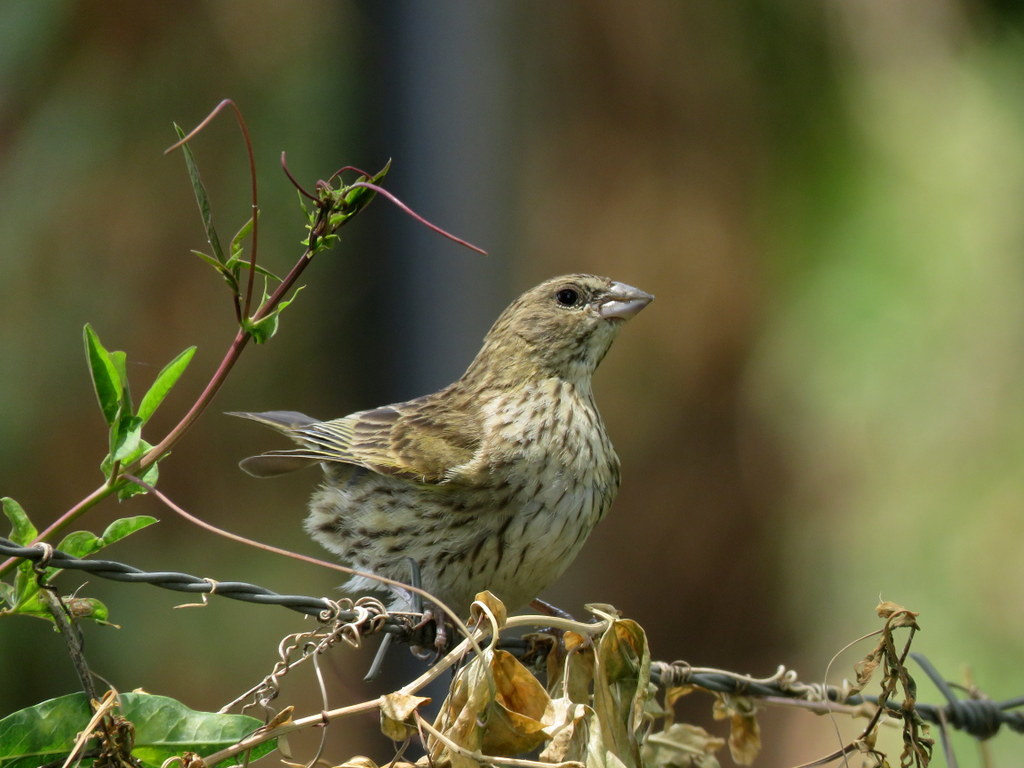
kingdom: Animalia
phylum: Chordata
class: Aves
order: Passeriformes
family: Thraupidae
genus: Sicalis
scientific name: Sicalis flaveola
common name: Saffron finch
